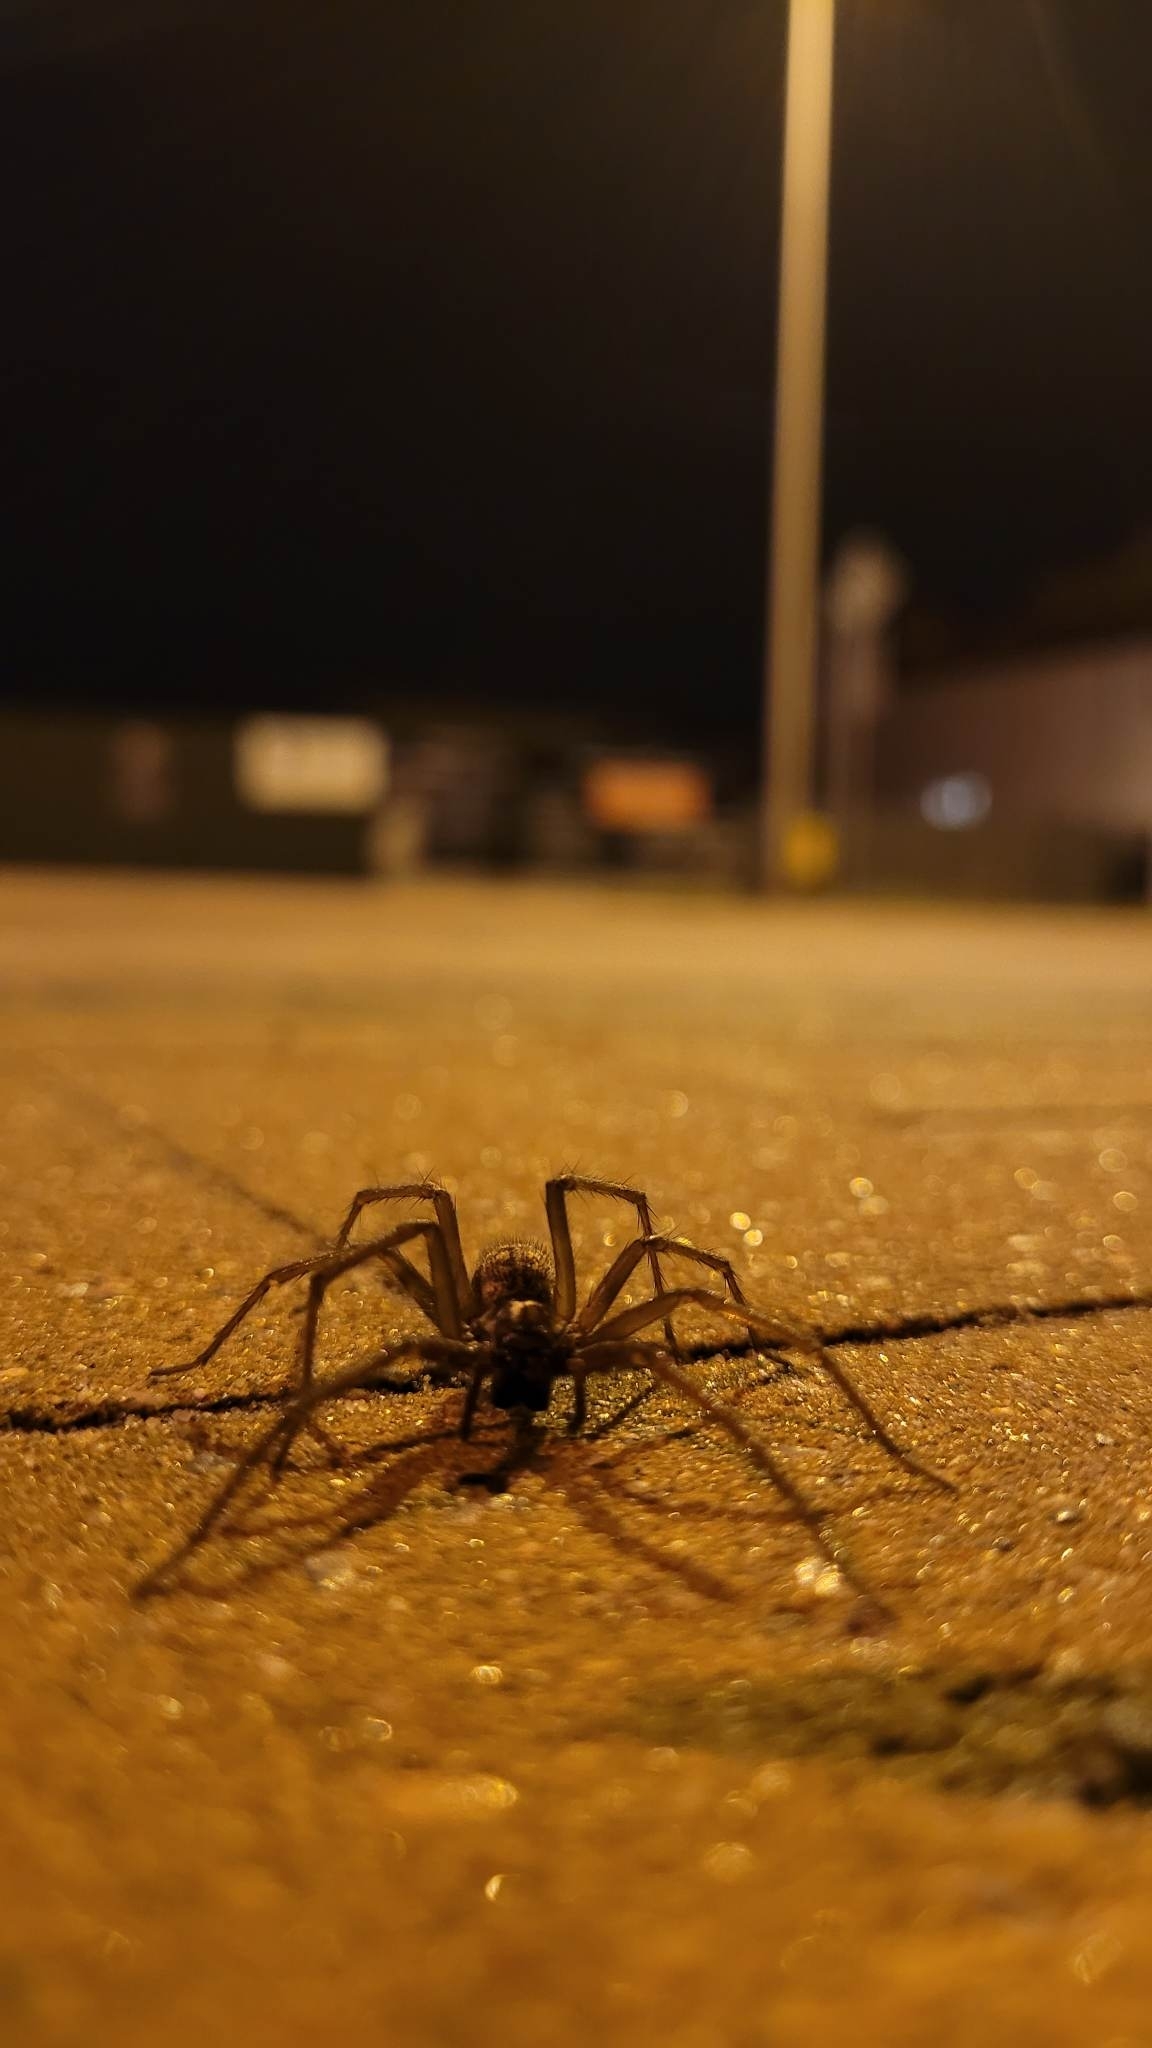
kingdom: Animalia
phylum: Arthropoda
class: Arachnida
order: Araneae
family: Agelenidae
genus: Eratigena
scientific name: Eratigena atrica
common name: Giant house spider
